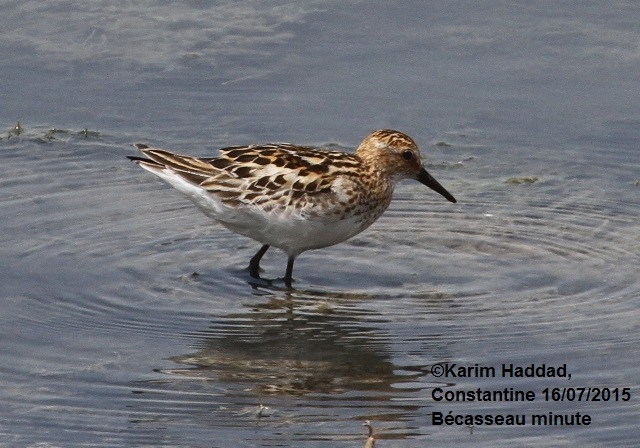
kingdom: Animalia
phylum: Chordata
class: Aves
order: Charadriiformes
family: Scolopacidae
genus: Calidris
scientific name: Calidris minuta
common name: Little stint
